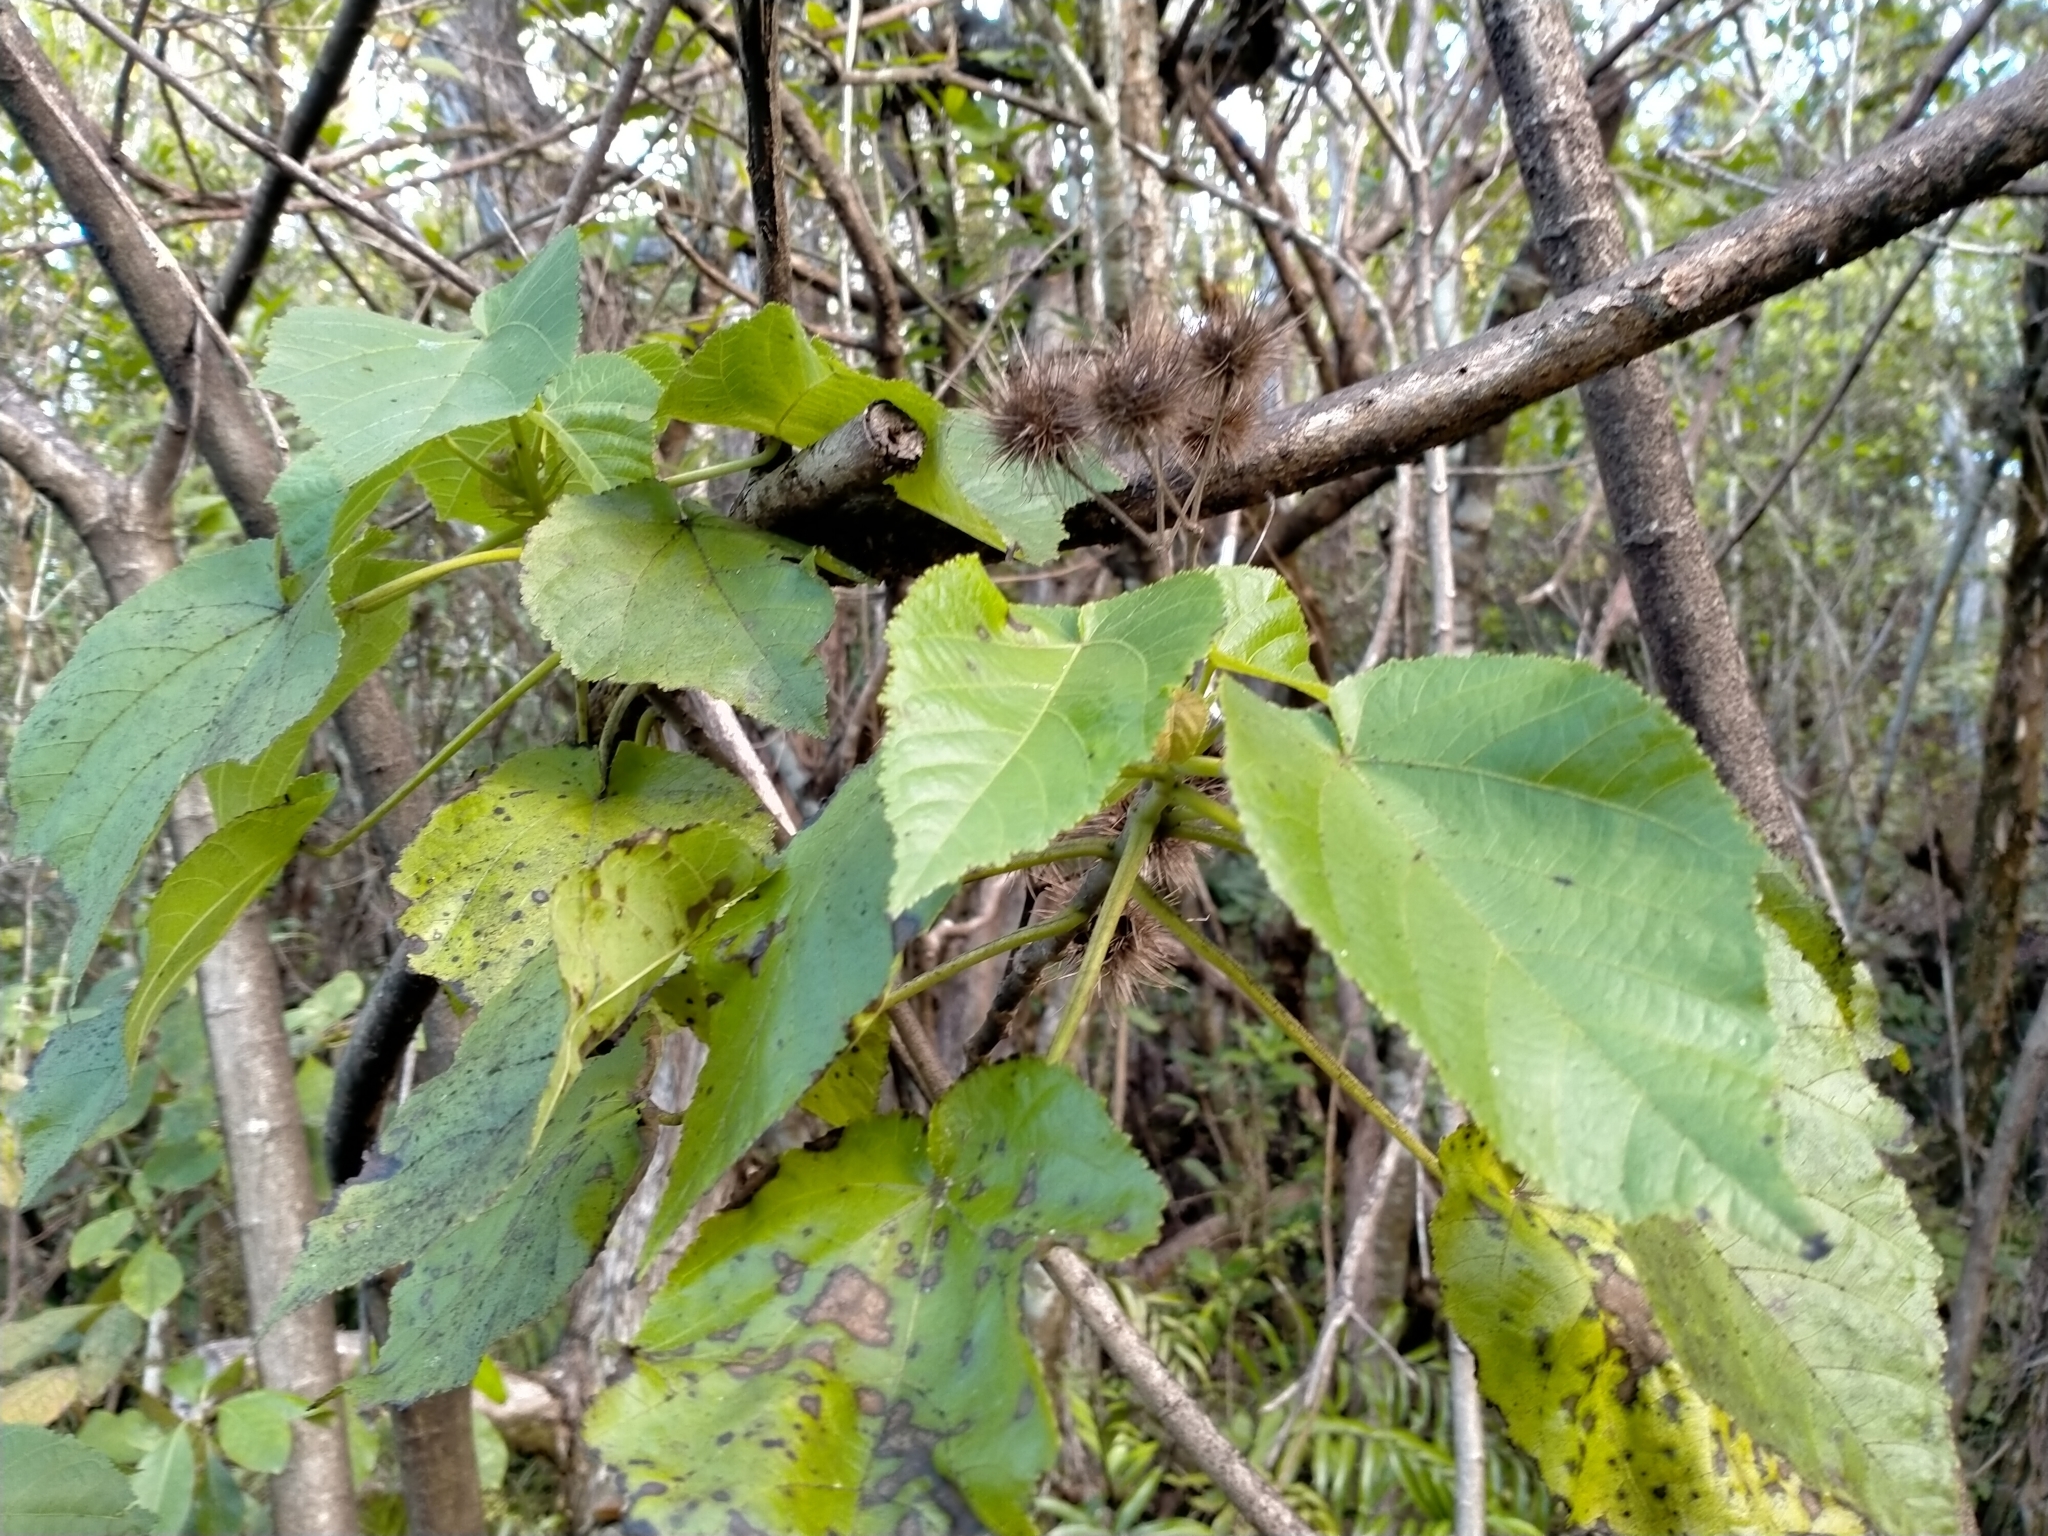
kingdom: Plantae
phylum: Tracheophyta
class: Magnoliopsida
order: Malvales
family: Malvaceae
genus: Entelea
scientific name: Entelea arborescens
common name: New zealand-mulberry
